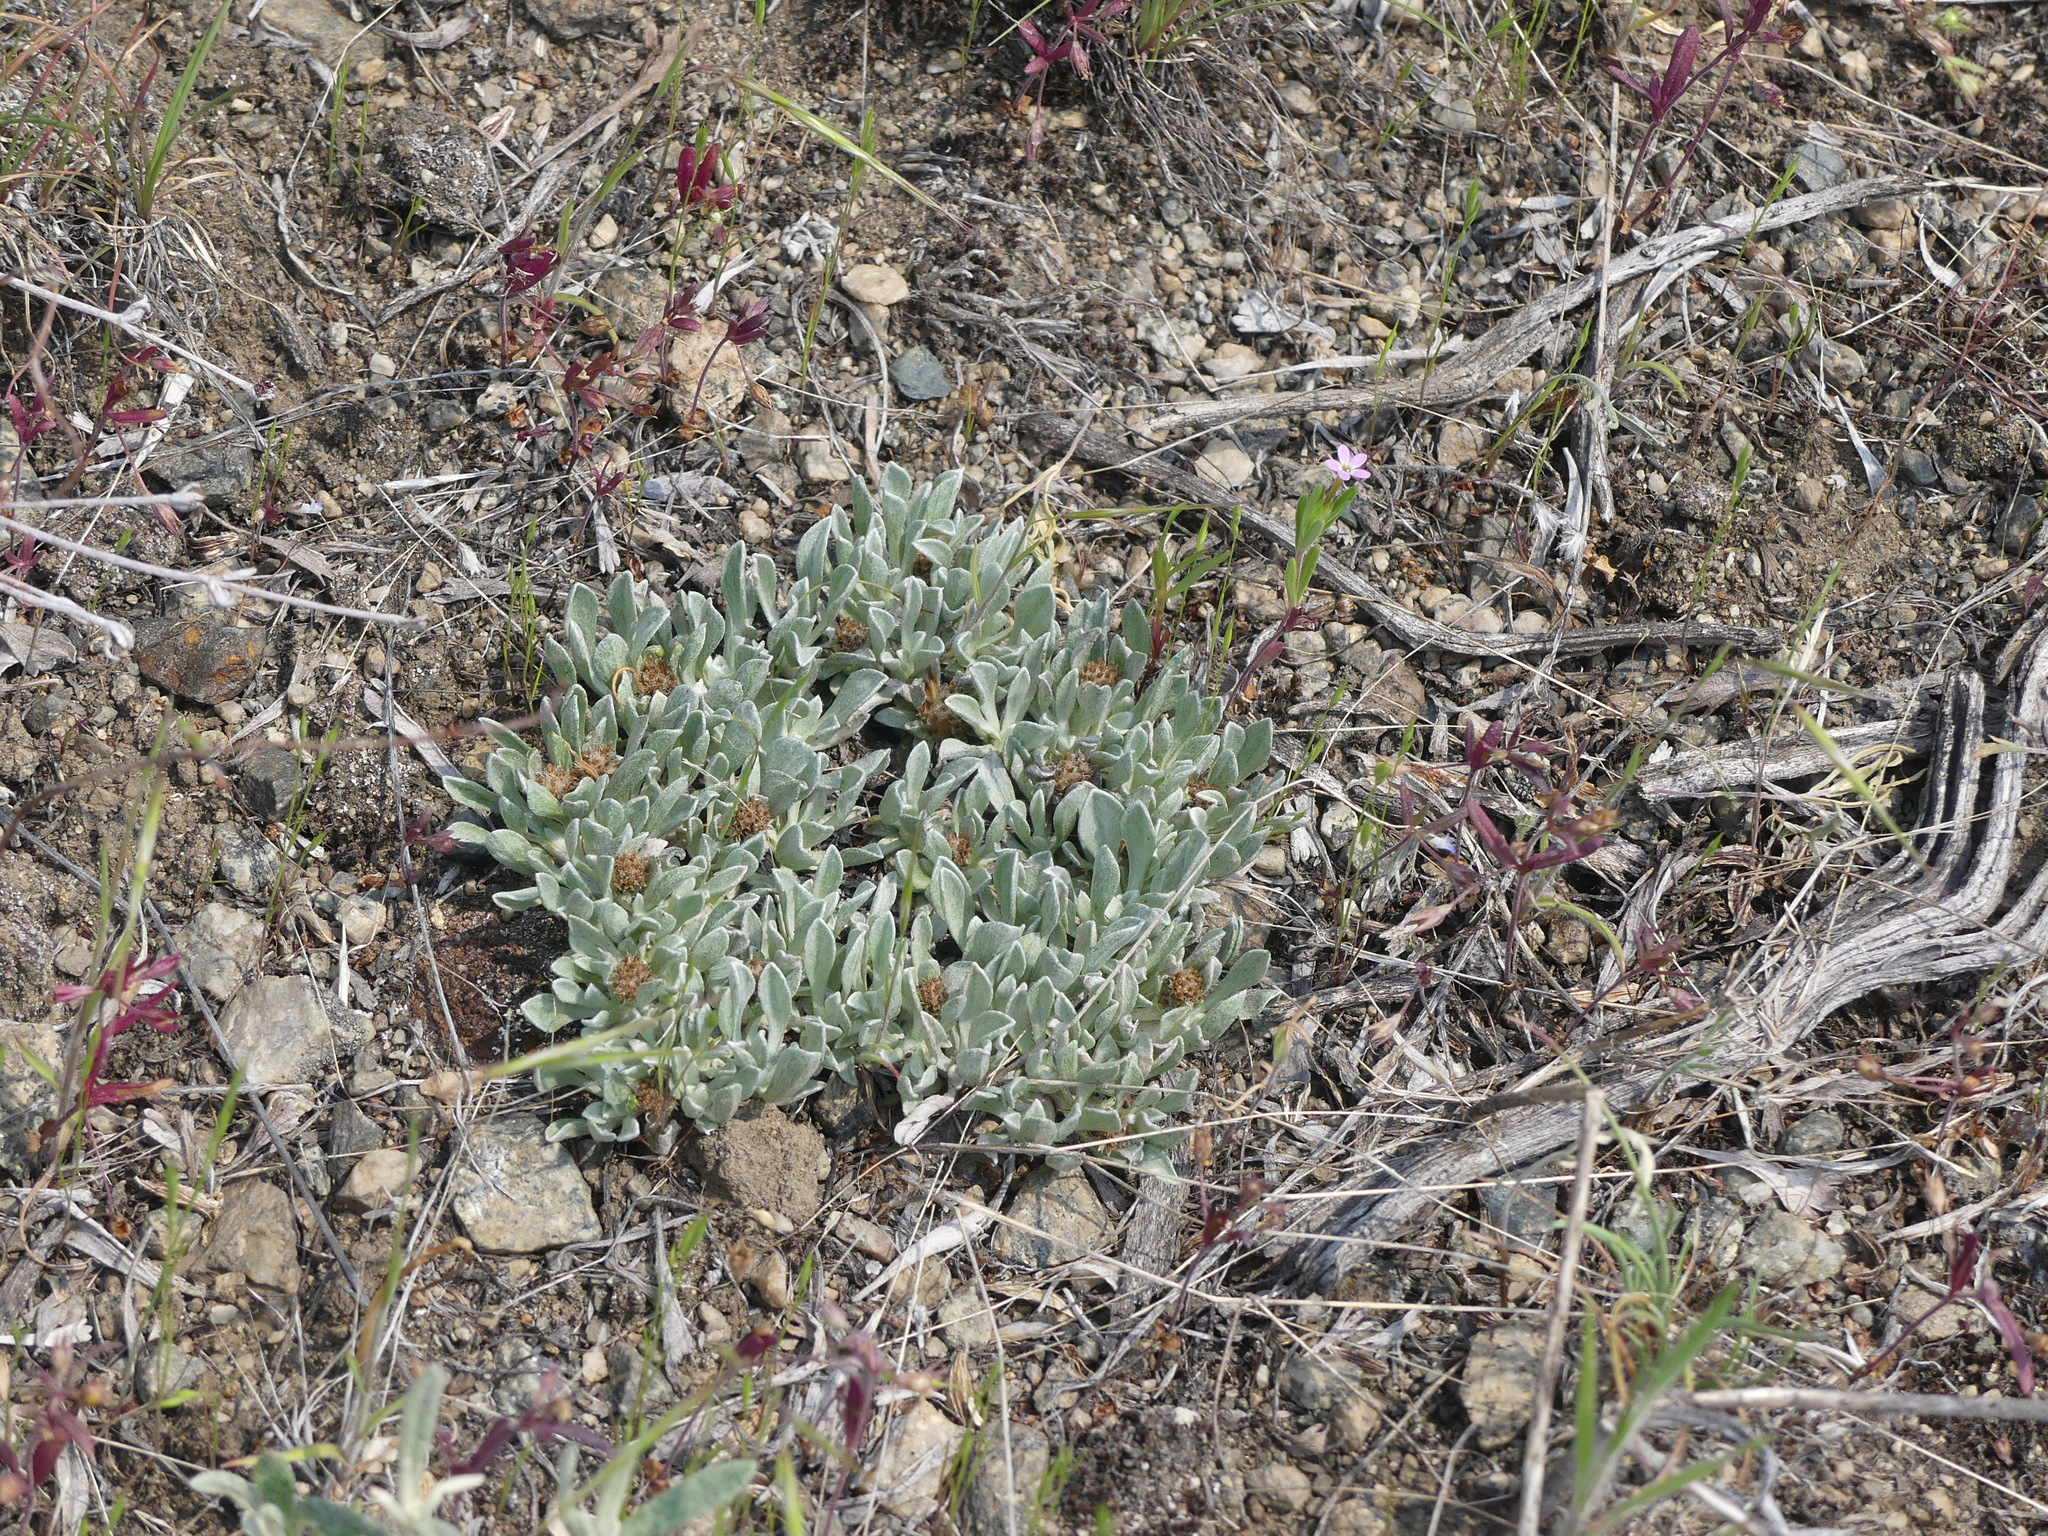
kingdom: Plantae
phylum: Tracheophyta
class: Magnoliopsida
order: Asterales
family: Asteraceae
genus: Antennaria
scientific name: Antennaria dimorpha
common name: Cushion pussytoes
